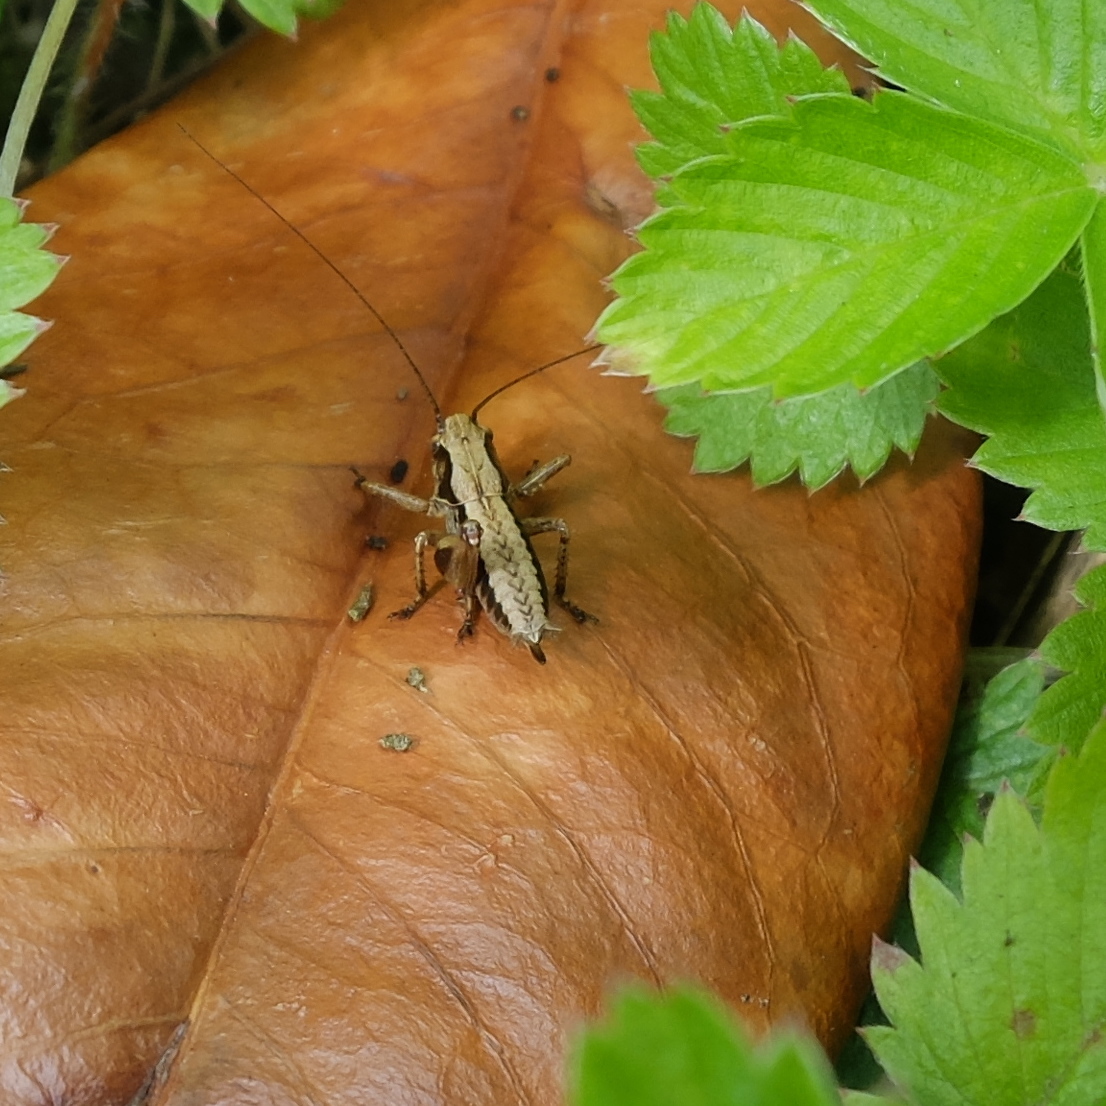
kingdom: Animalia
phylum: Arthropoda
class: Insecta
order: Orthoptera
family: Tettigoniidae
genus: Pholidoptera
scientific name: Pholidoptera griseoaptera
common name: Dark bush-cricket
